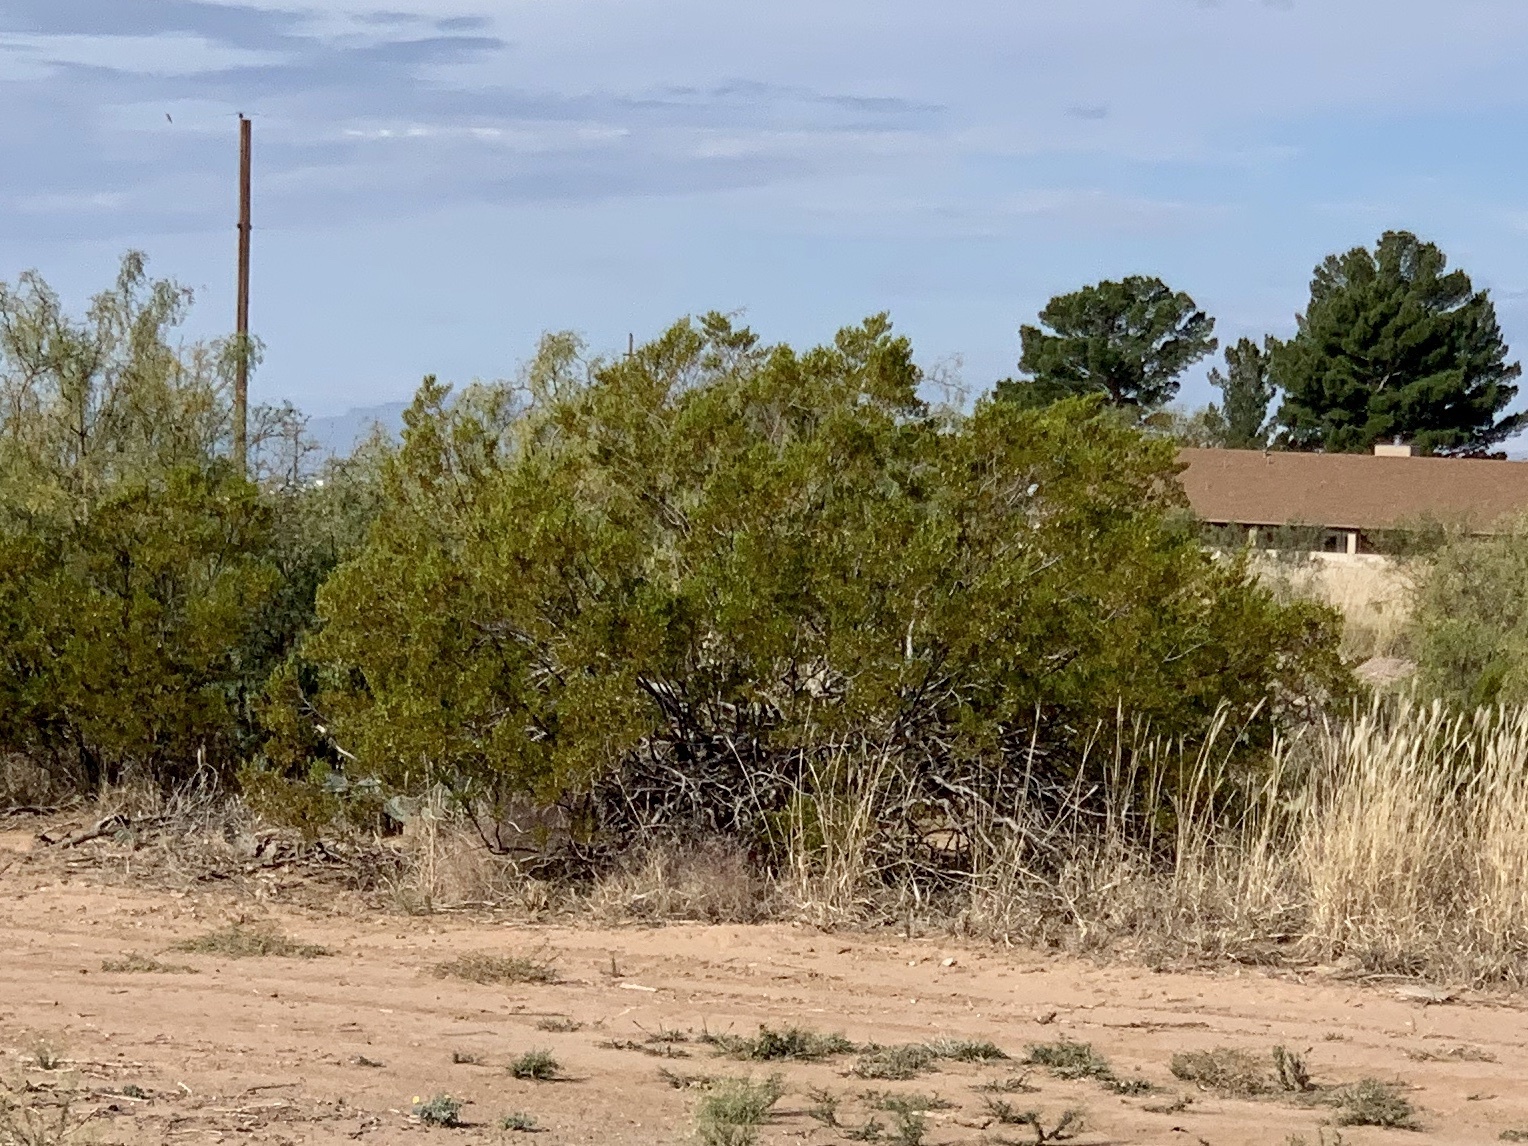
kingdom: Plantae
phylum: Tracheophyta
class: Magnoliopsida
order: Zygophyllales
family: Zygophyllaceae
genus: Larrea
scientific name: Larrea tridentata
